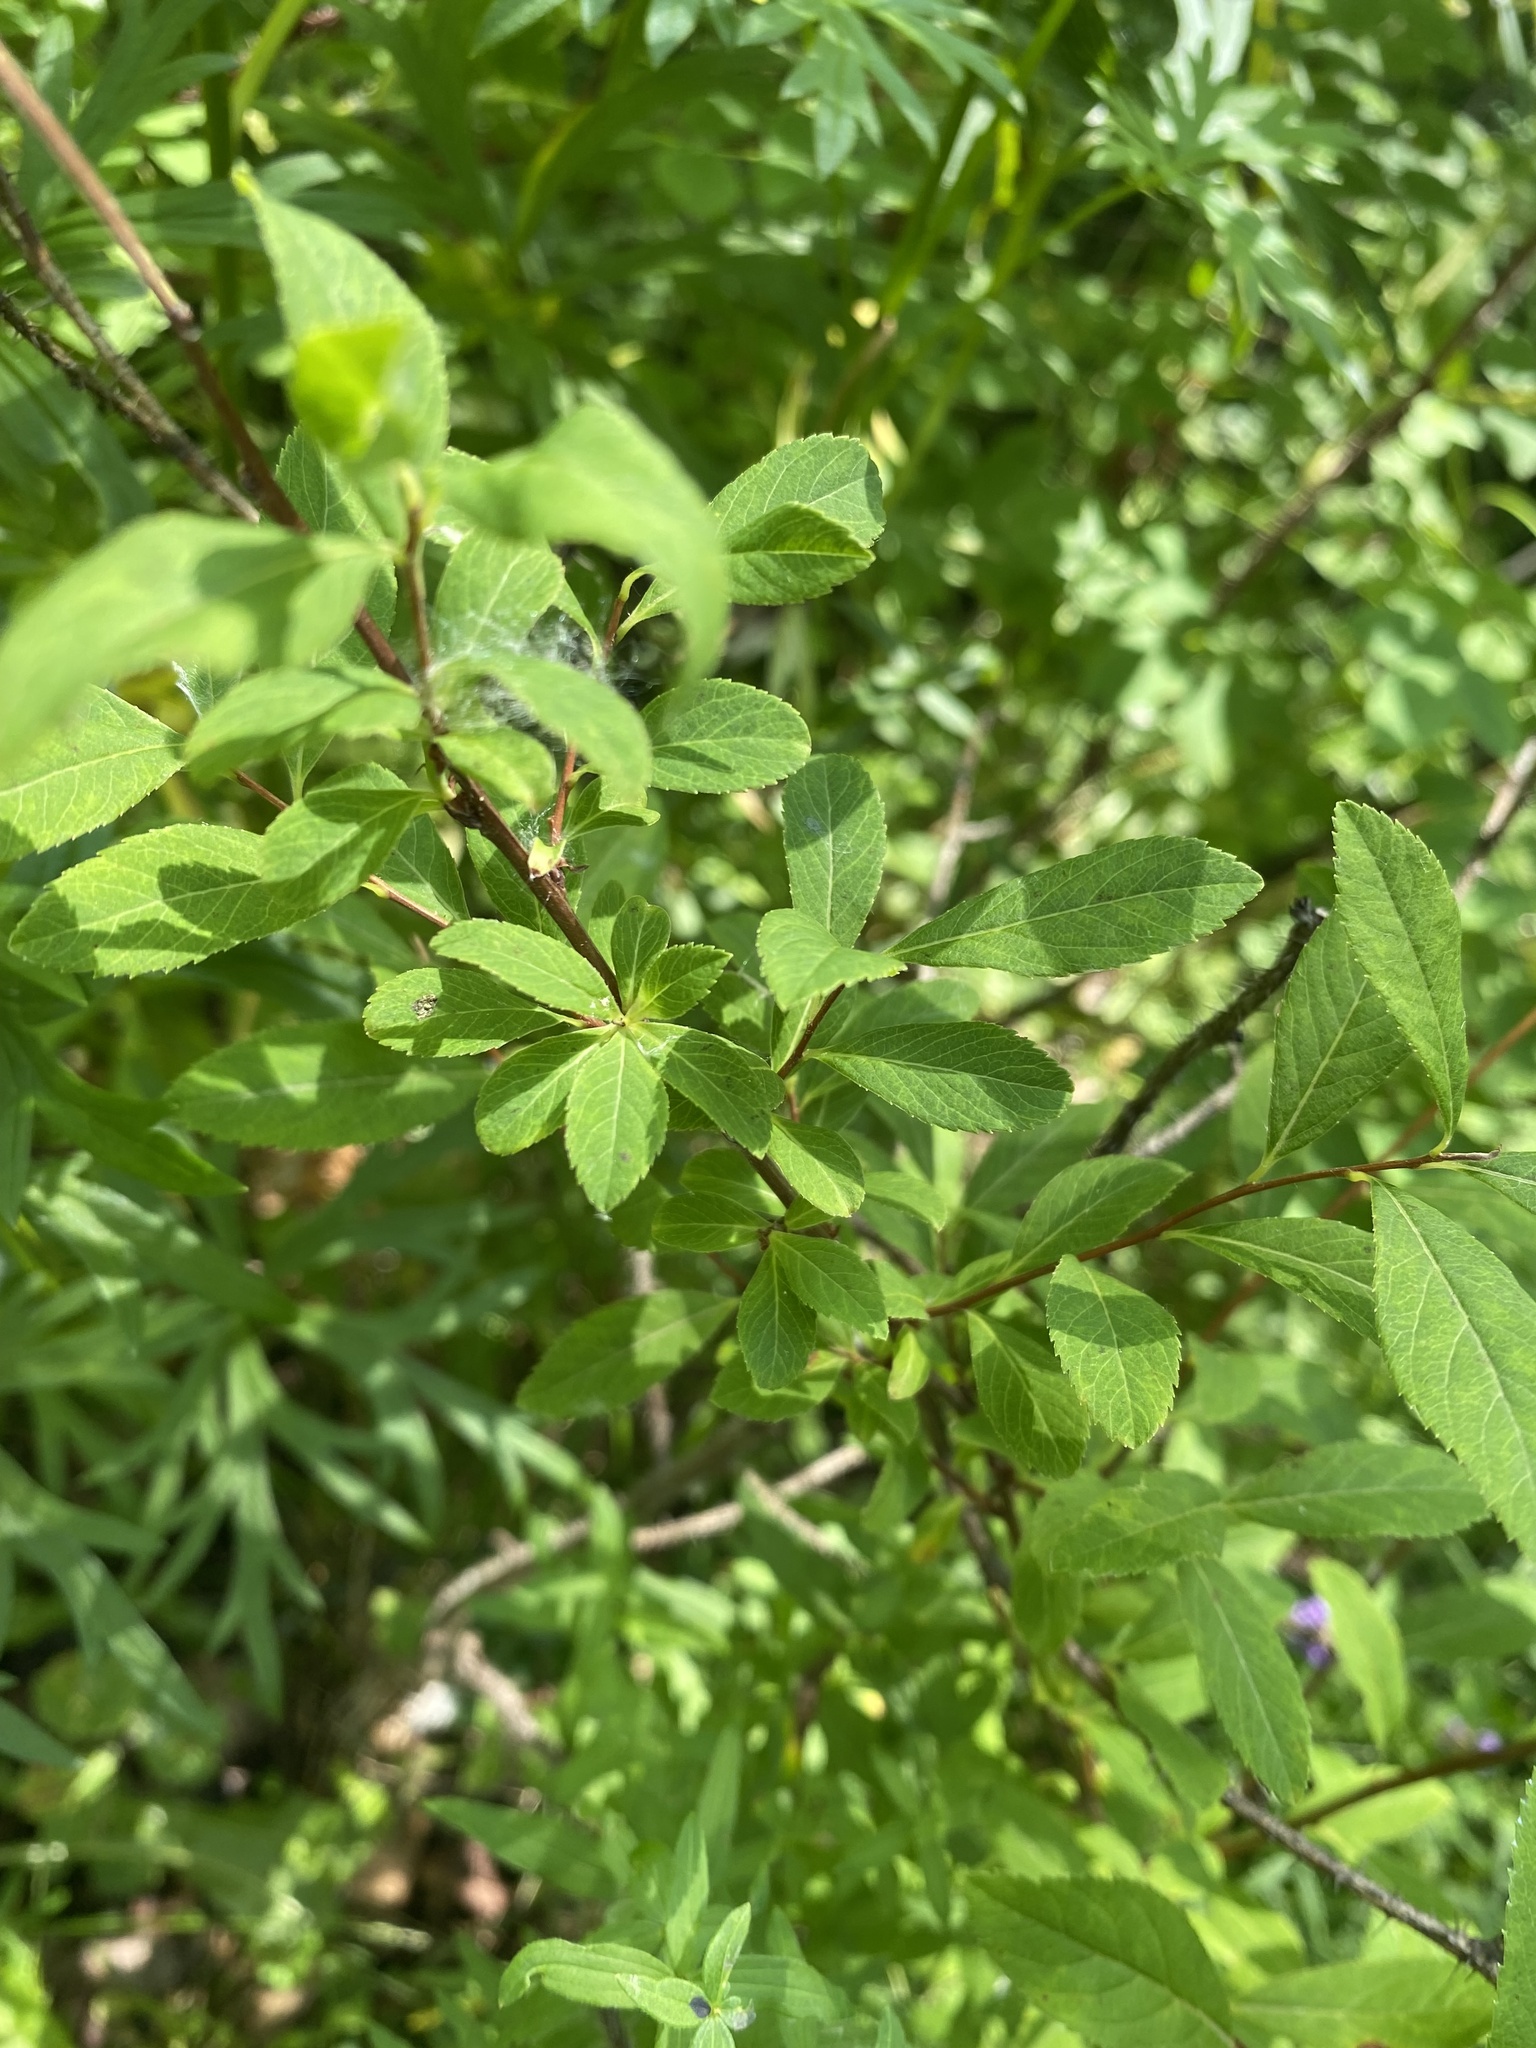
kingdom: Plantae
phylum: Tracheophyta
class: Magnoliopsida
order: Rosales
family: Rosaceae
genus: Spiraea
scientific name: Spiraea salicifolia
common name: Bridewort
